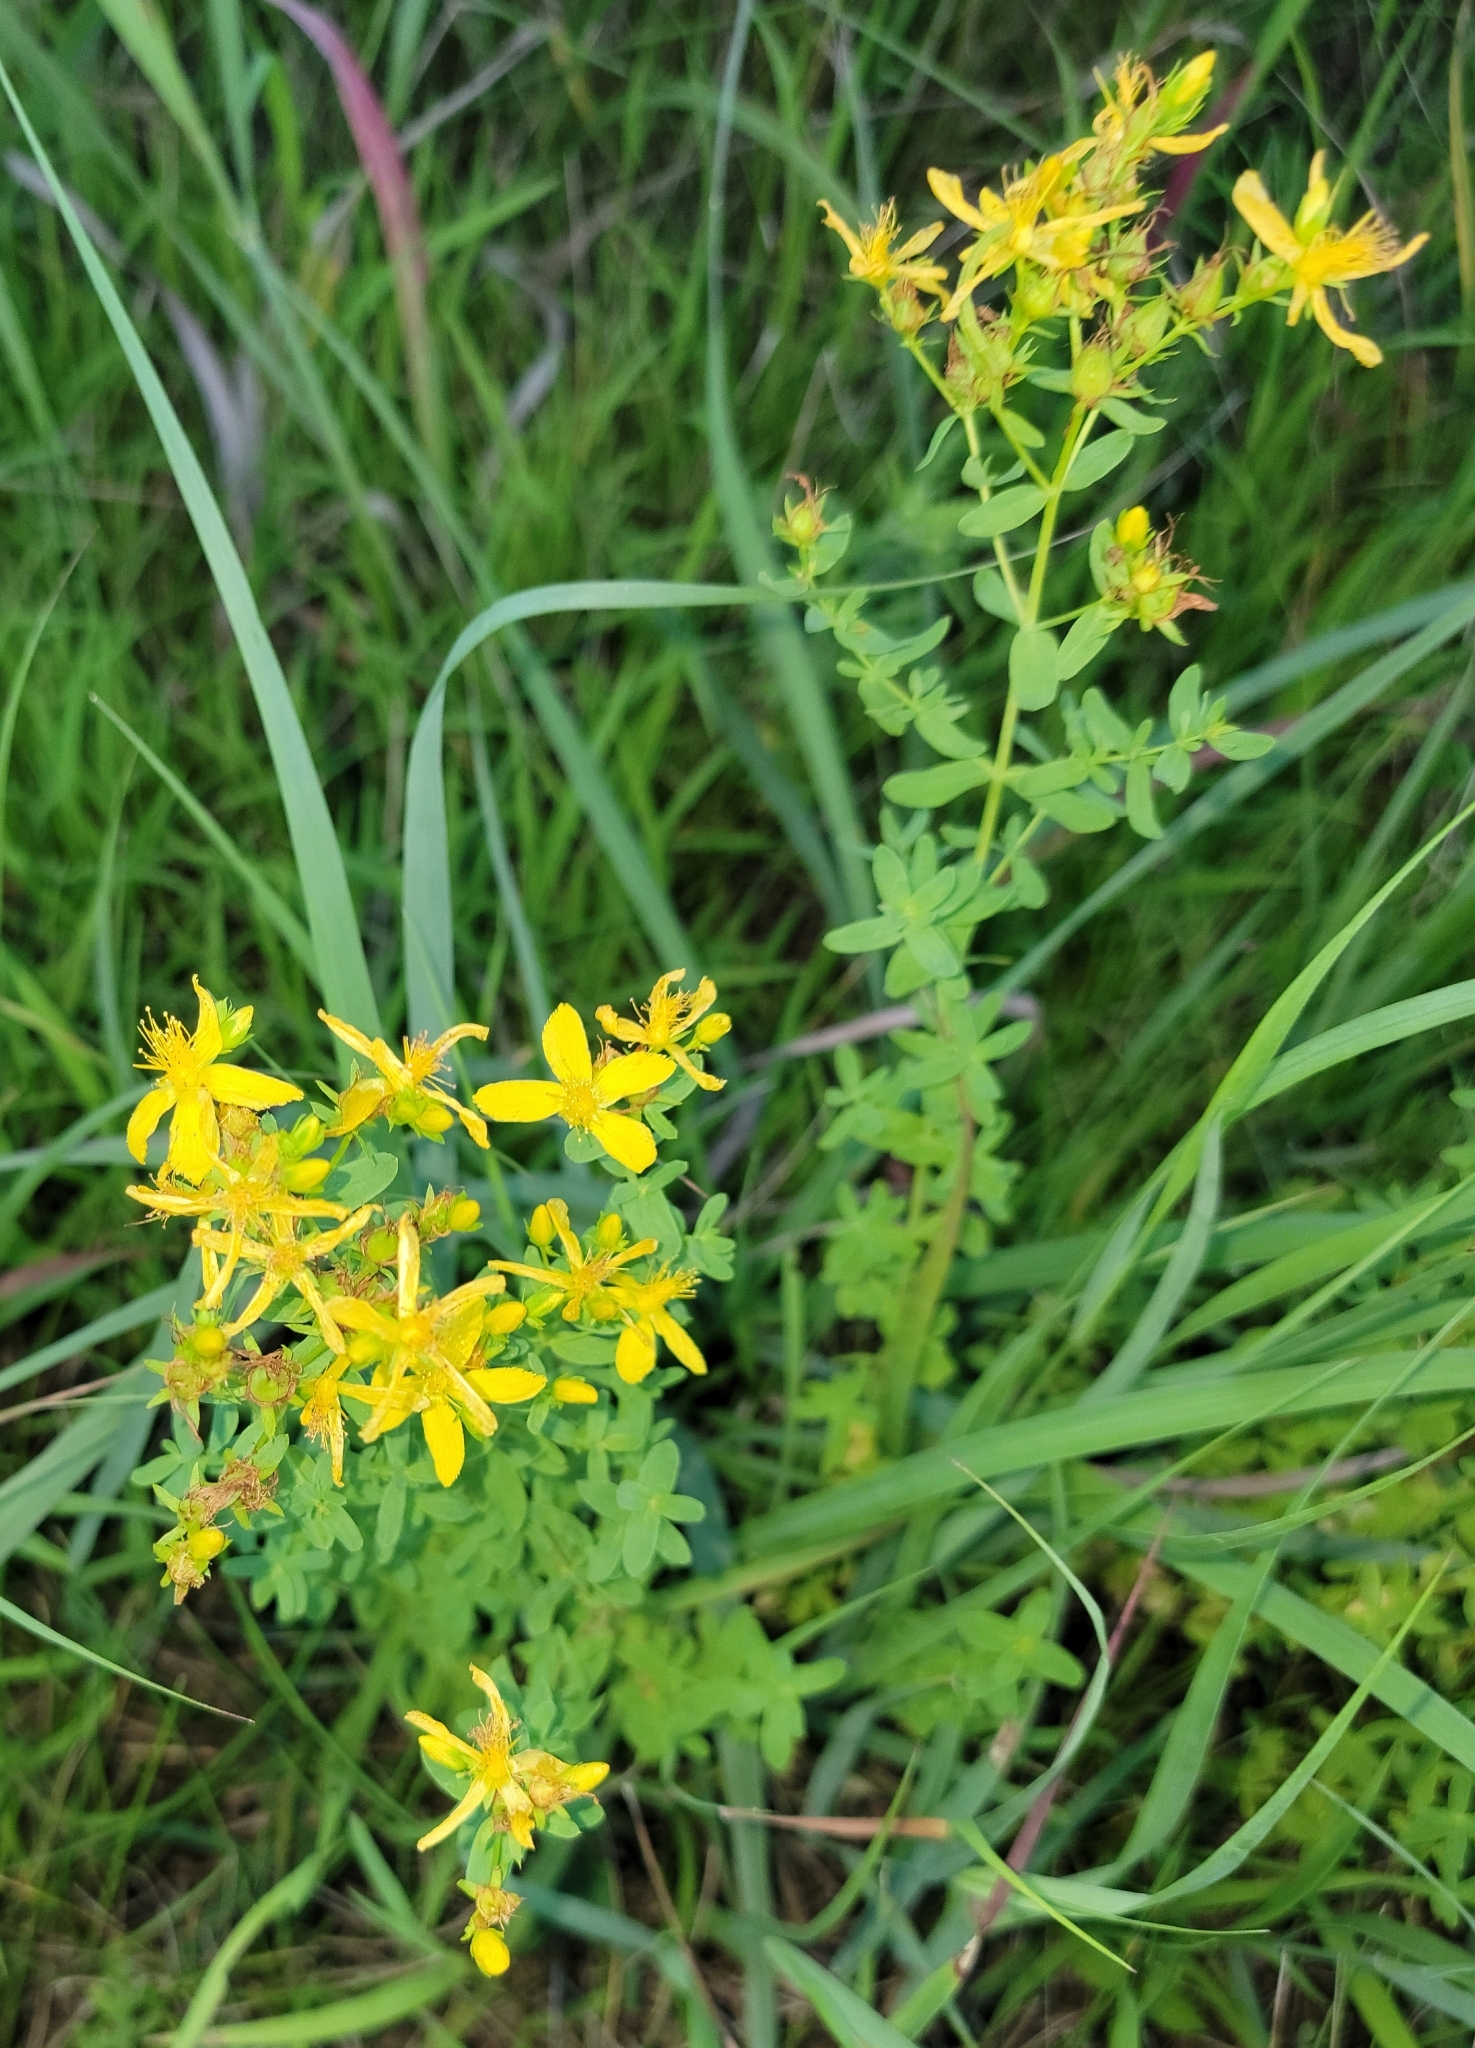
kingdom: Plantae
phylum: Tracheophyta
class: Magnoliopsida
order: Malpighiales
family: Hypericaceae
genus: Hypericum
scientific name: Hypericum perforatum
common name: Common st. johnswort
